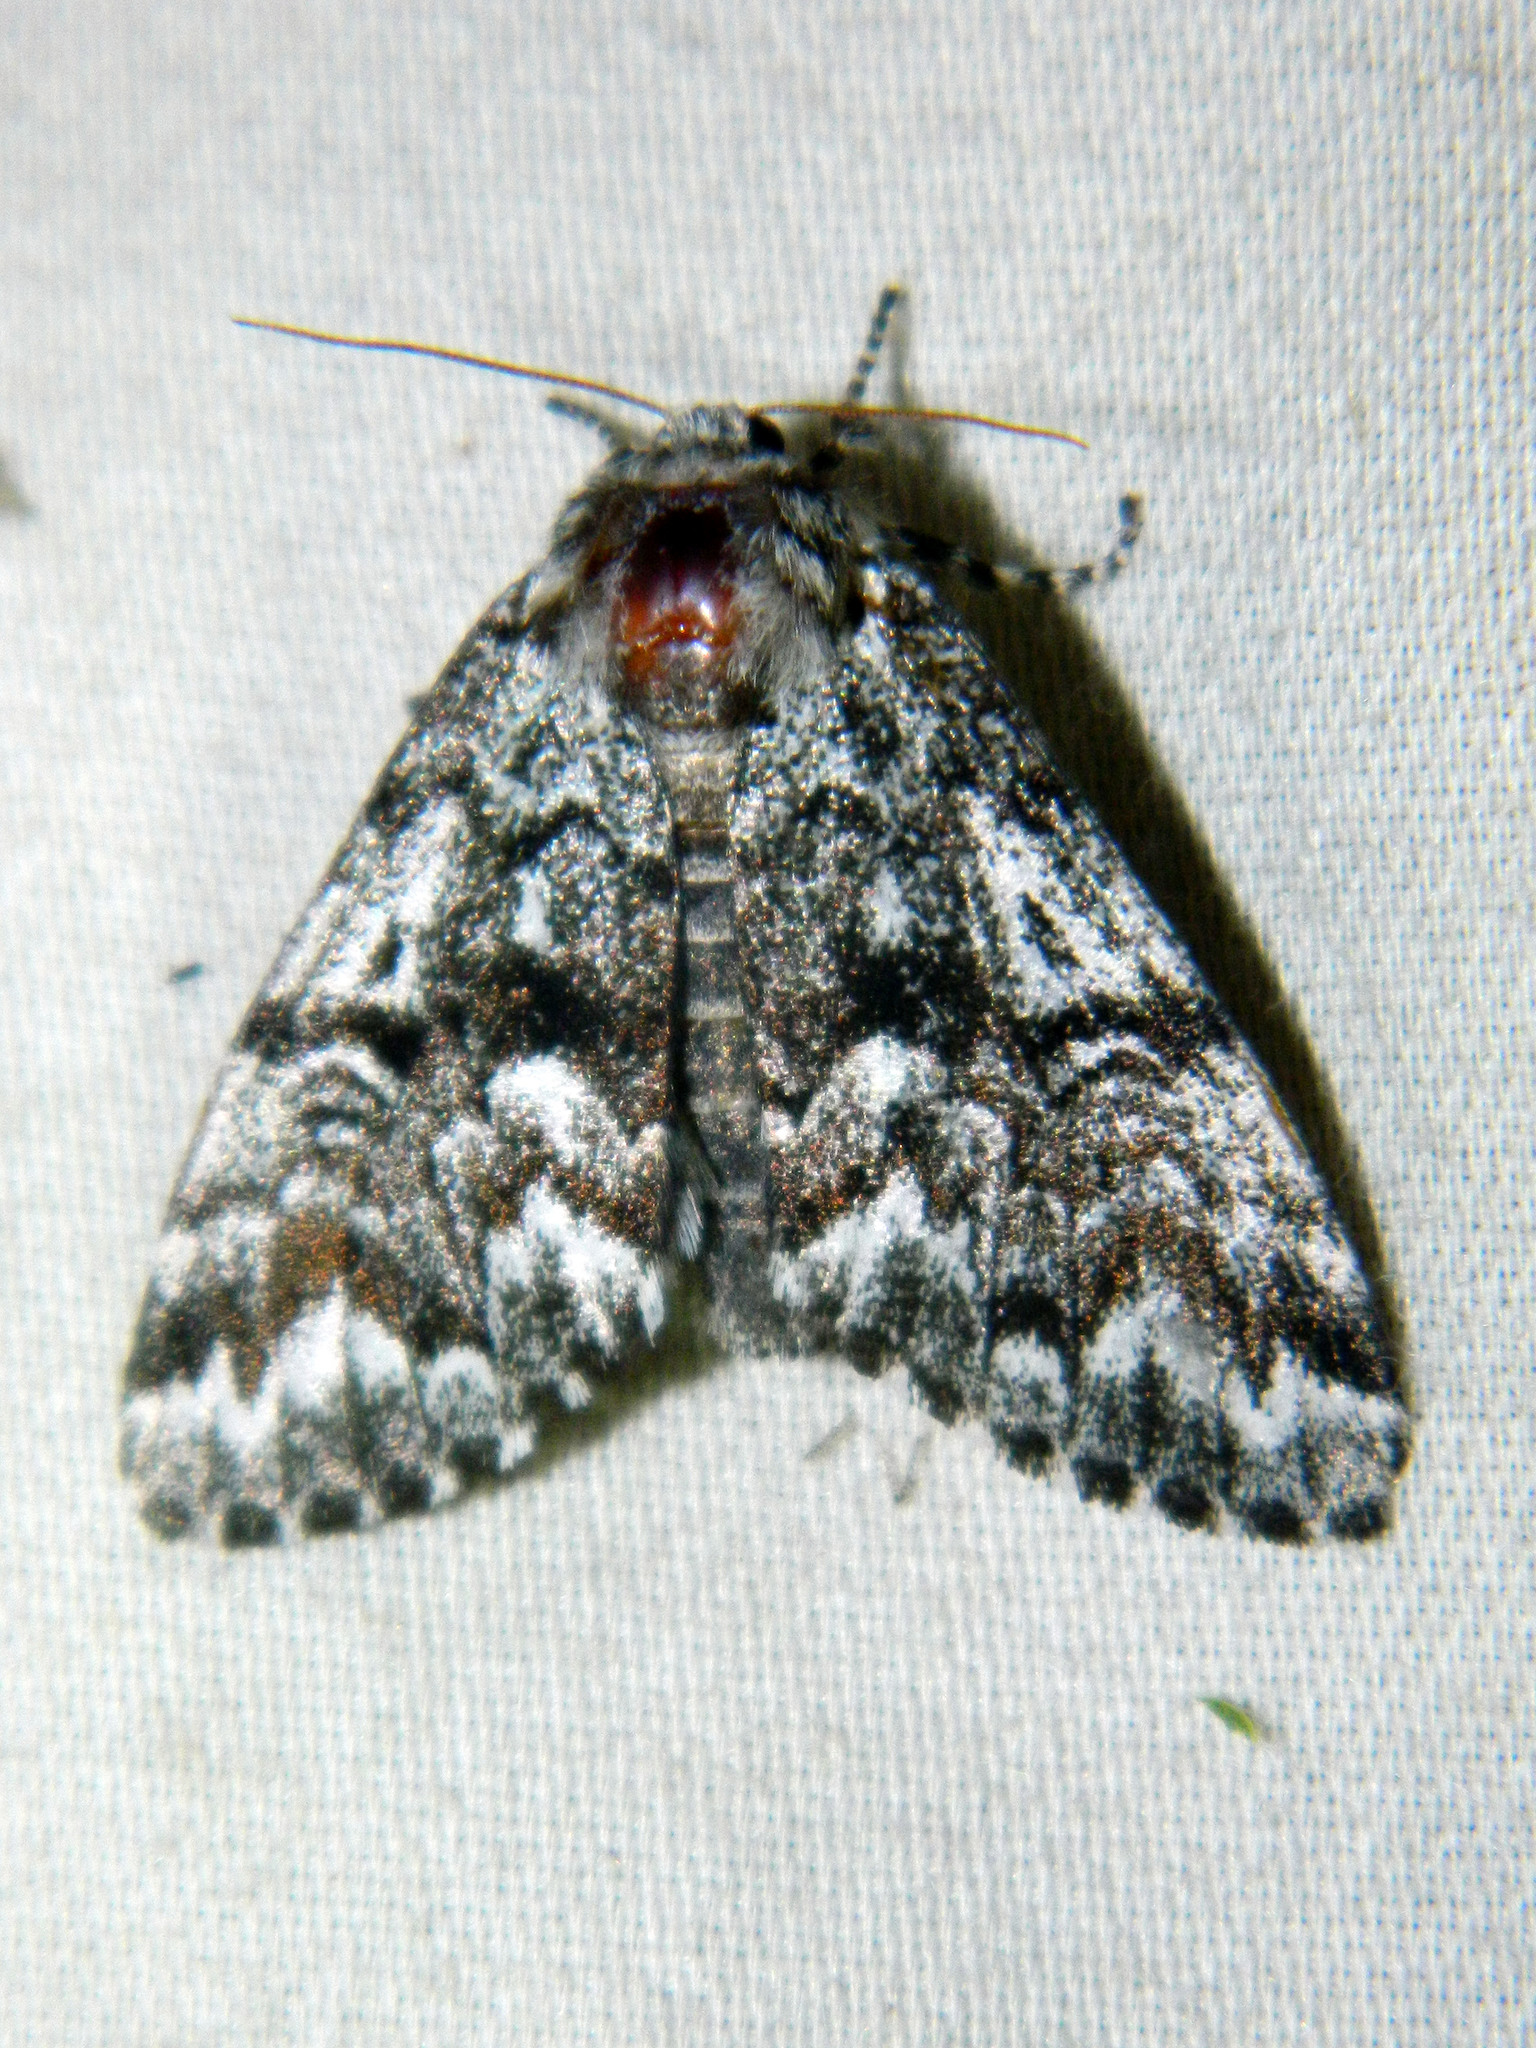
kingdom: Animalia
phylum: Arthropoda
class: Insecta
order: Lepidoptera
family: Noctuidae
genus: Panthea
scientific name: Panthea acronyctoides
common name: Black zigzag moth
